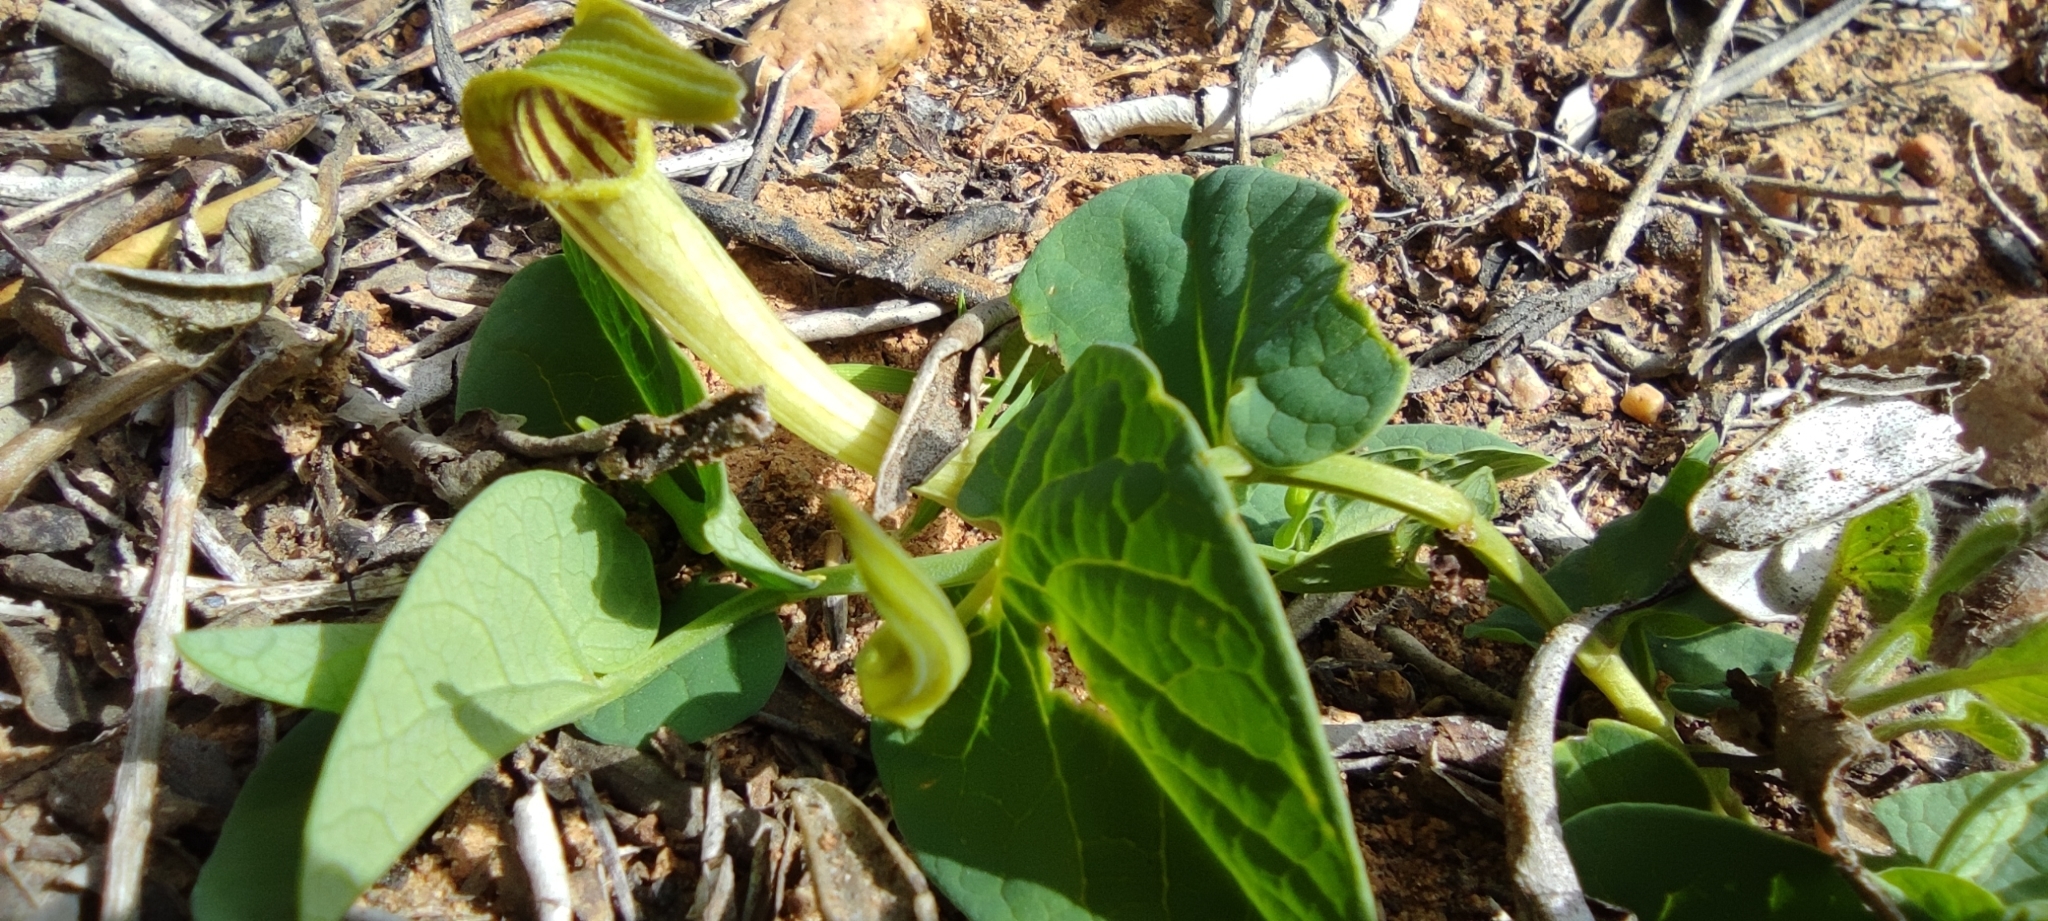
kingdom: Plantae
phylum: Tracheophyta
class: Magnoliopsida
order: Piperales
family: Aristolochiaceae
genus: Aristolochia
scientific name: Aristolochia paucinervis
